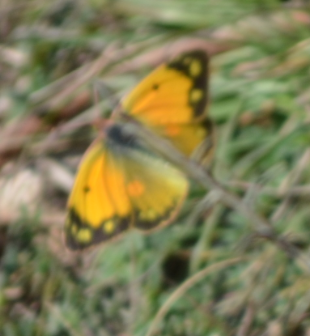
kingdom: Animalia
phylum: Arthropoda
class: Insecta
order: Lepidoptera
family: Pieridae
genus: Colias
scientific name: Colias croceus
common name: Clouded yellow
